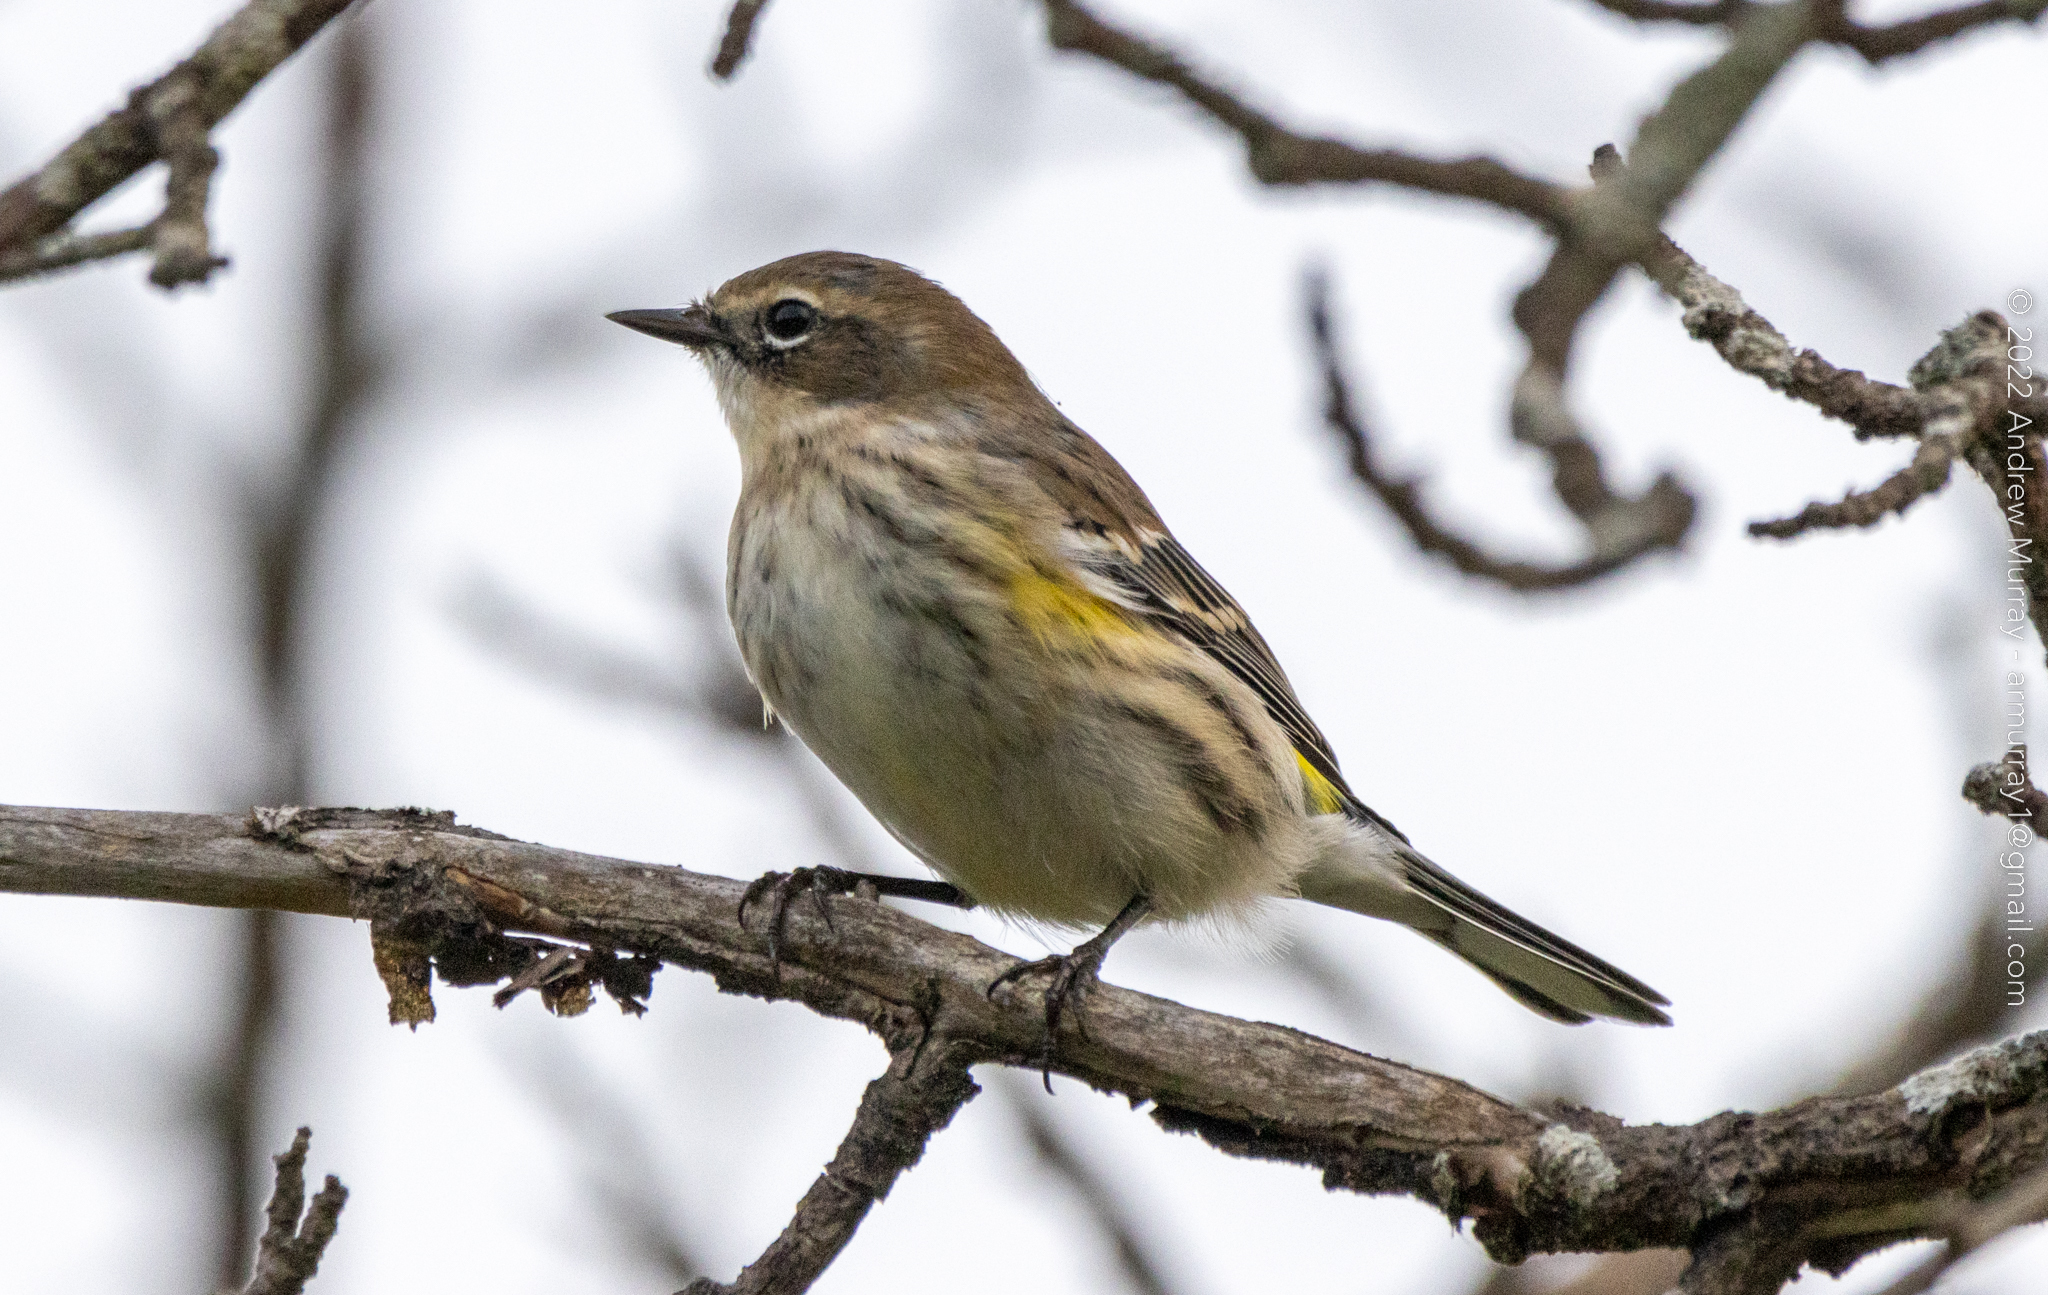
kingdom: Animalia
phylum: Chordata
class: Aves
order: Passeriformes
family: Parulidae
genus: Setophaga
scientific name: Setophaga coronata
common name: Myrtle warbler
